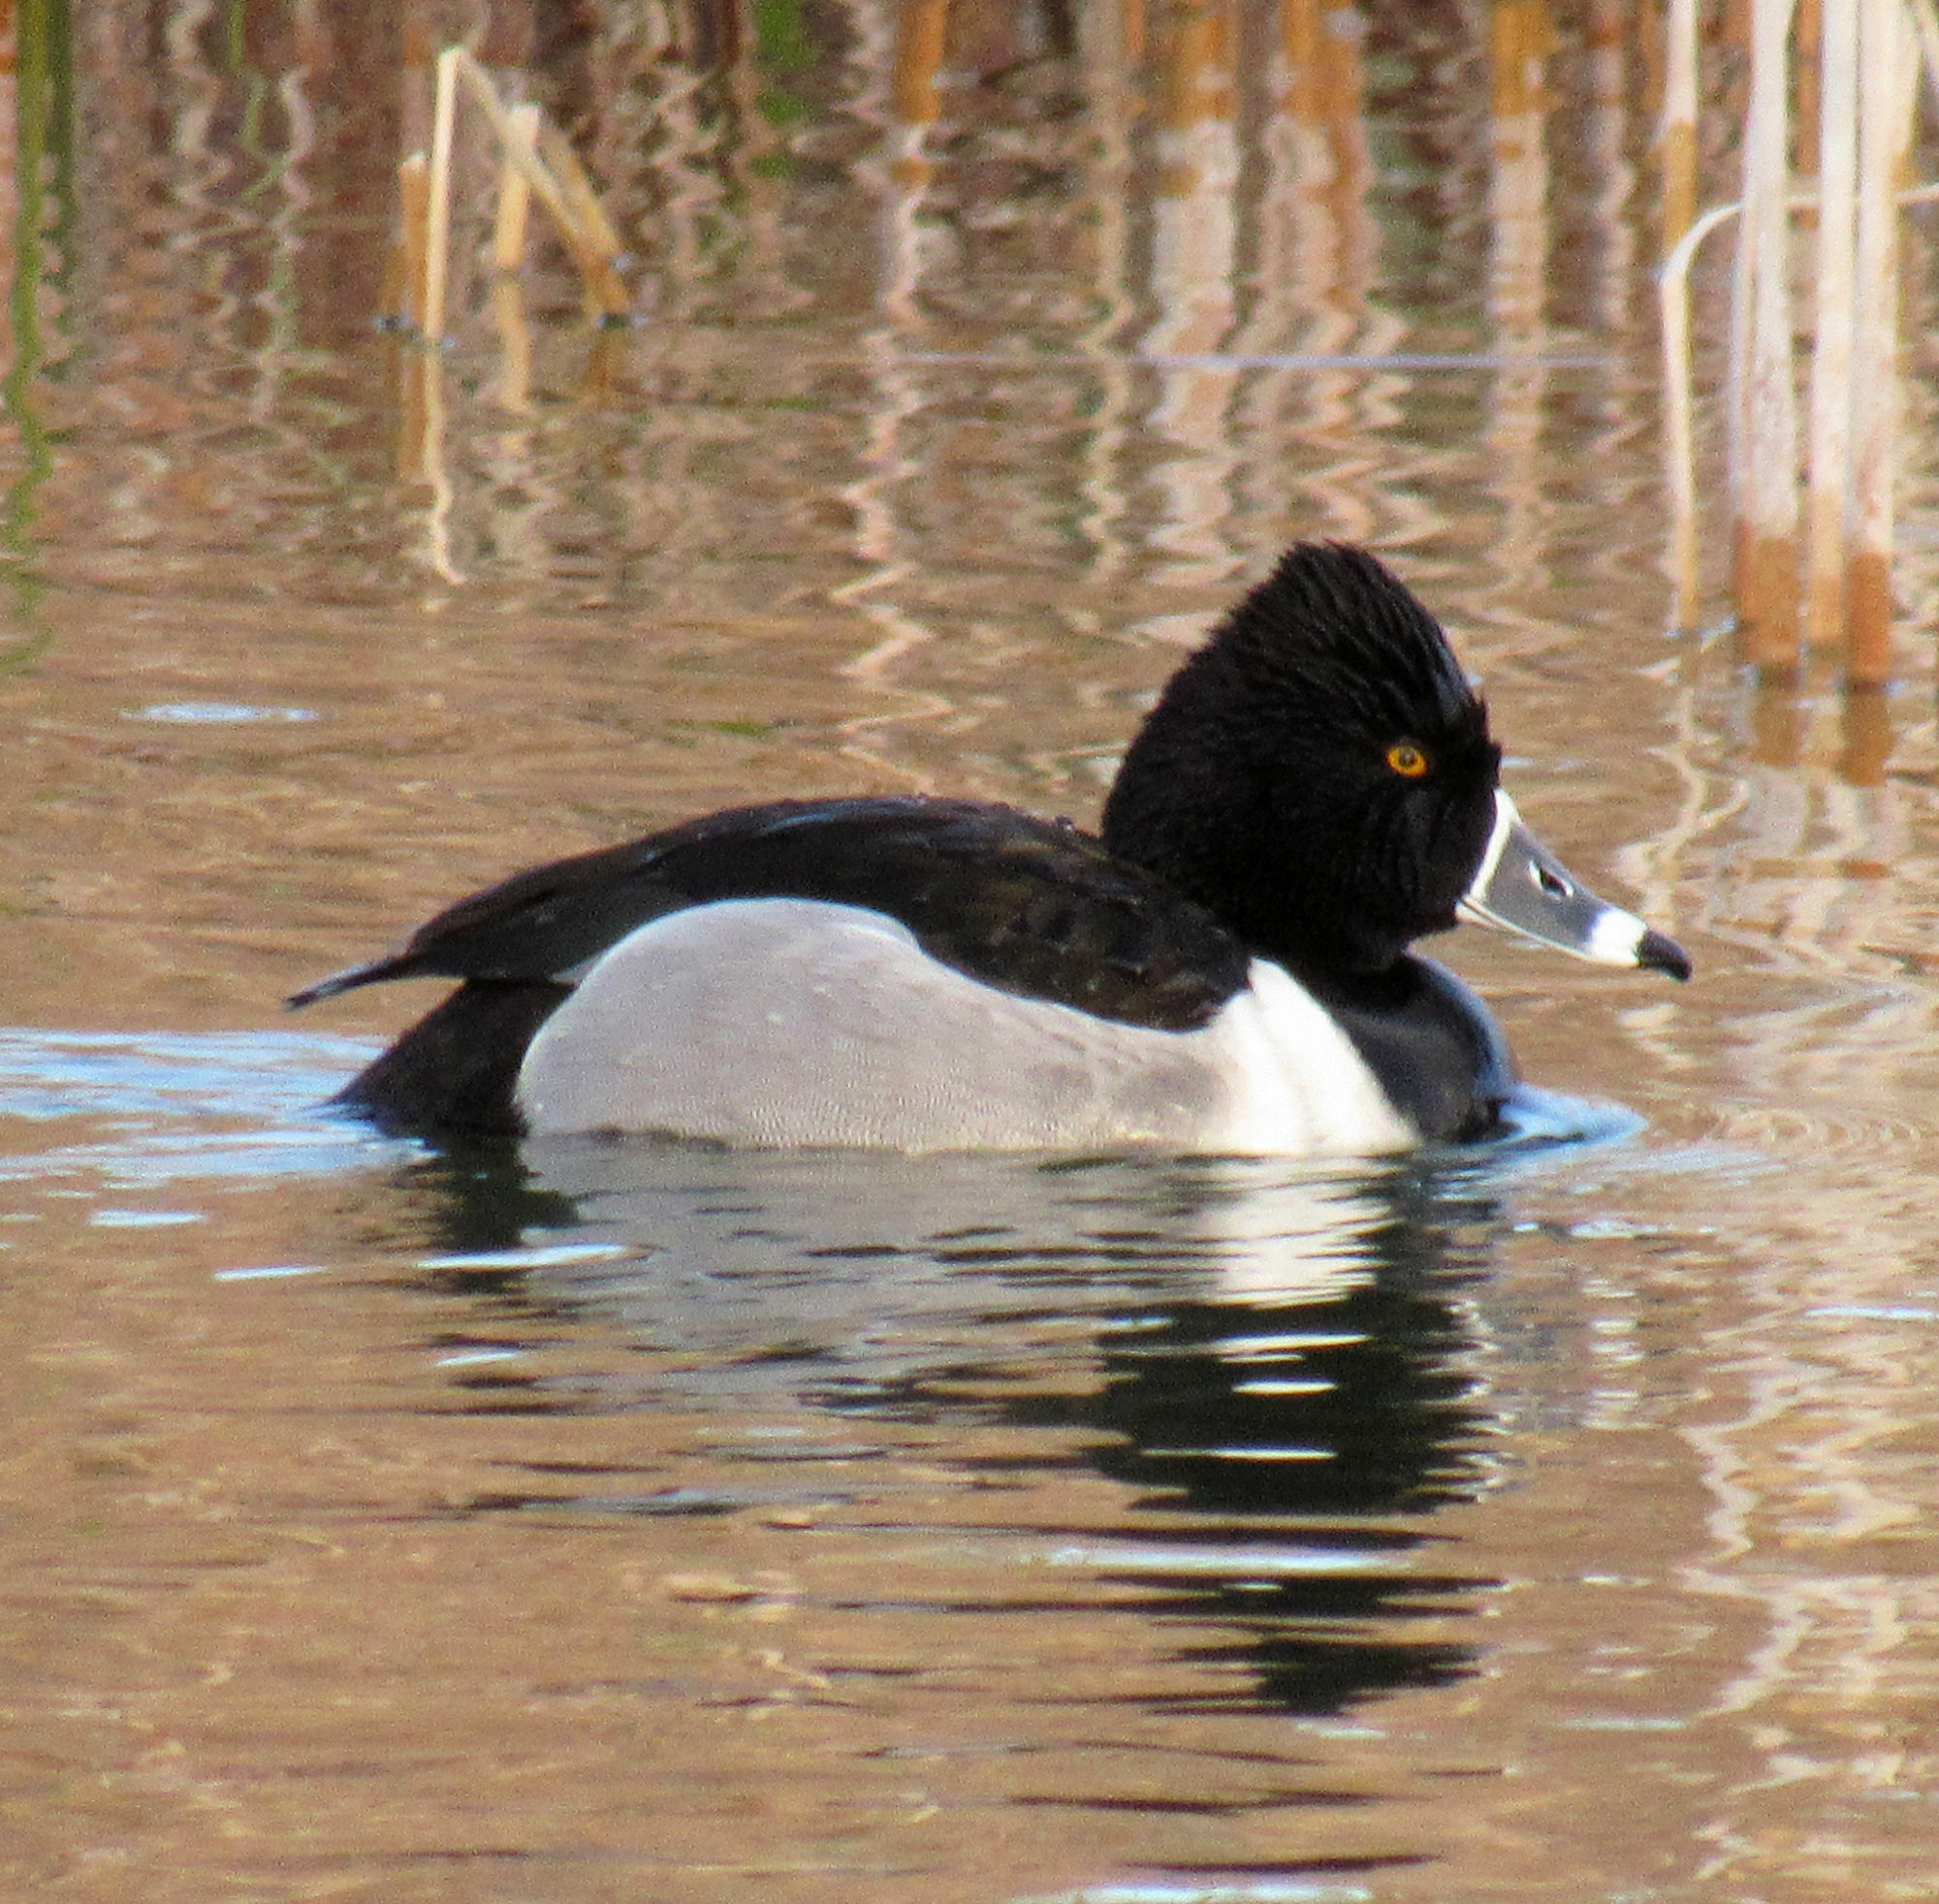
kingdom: Animalia
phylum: Chordata
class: Aves
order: Anseriformes
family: Anatidae
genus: Aythya
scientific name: Aythya collaris
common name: Ring-necked duck
